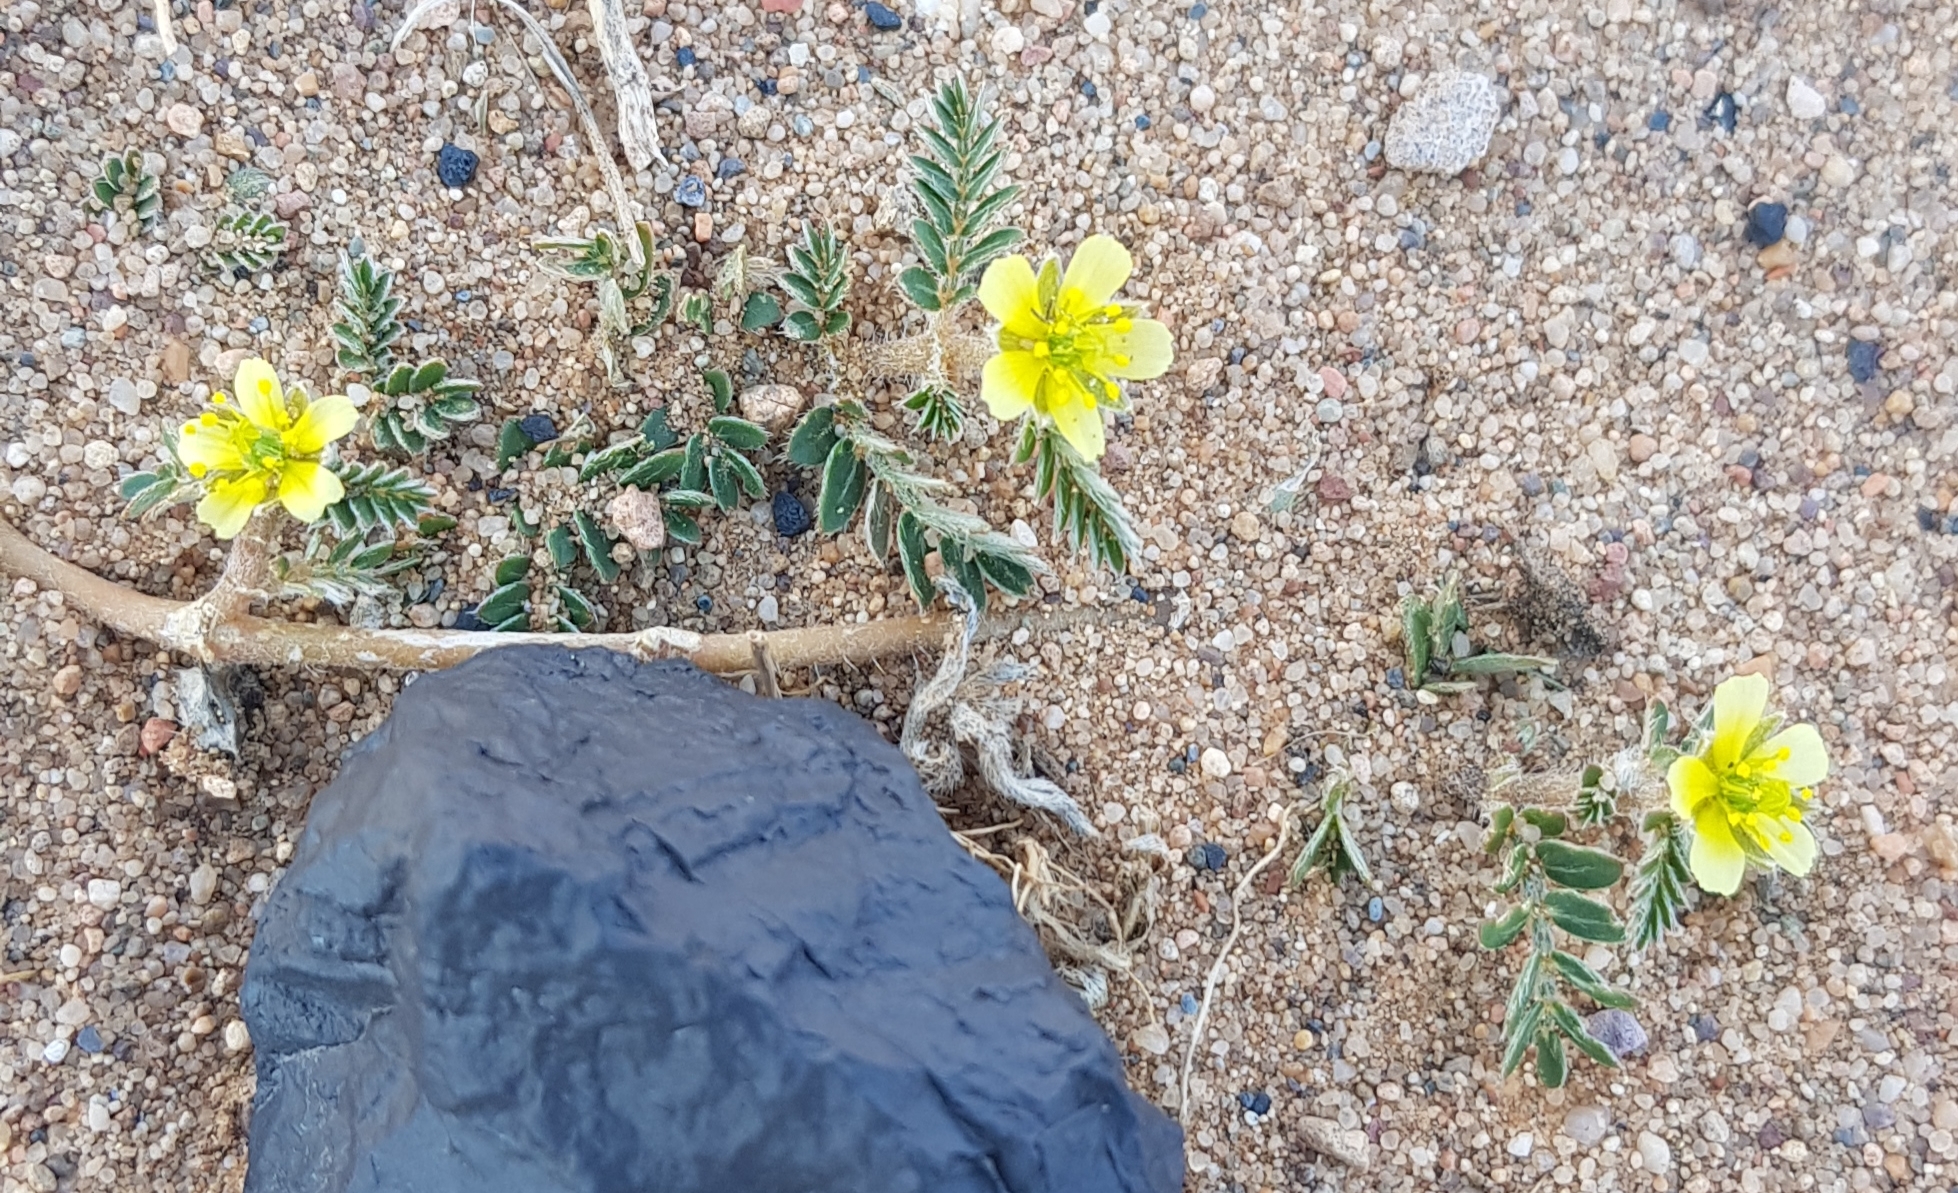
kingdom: Plantae
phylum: Tracheophyta
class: Magnoliopsida
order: Zygophyllales
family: Zygophyllaceae
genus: Tribulus
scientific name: Tribulus terrestris
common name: Puncturevine
